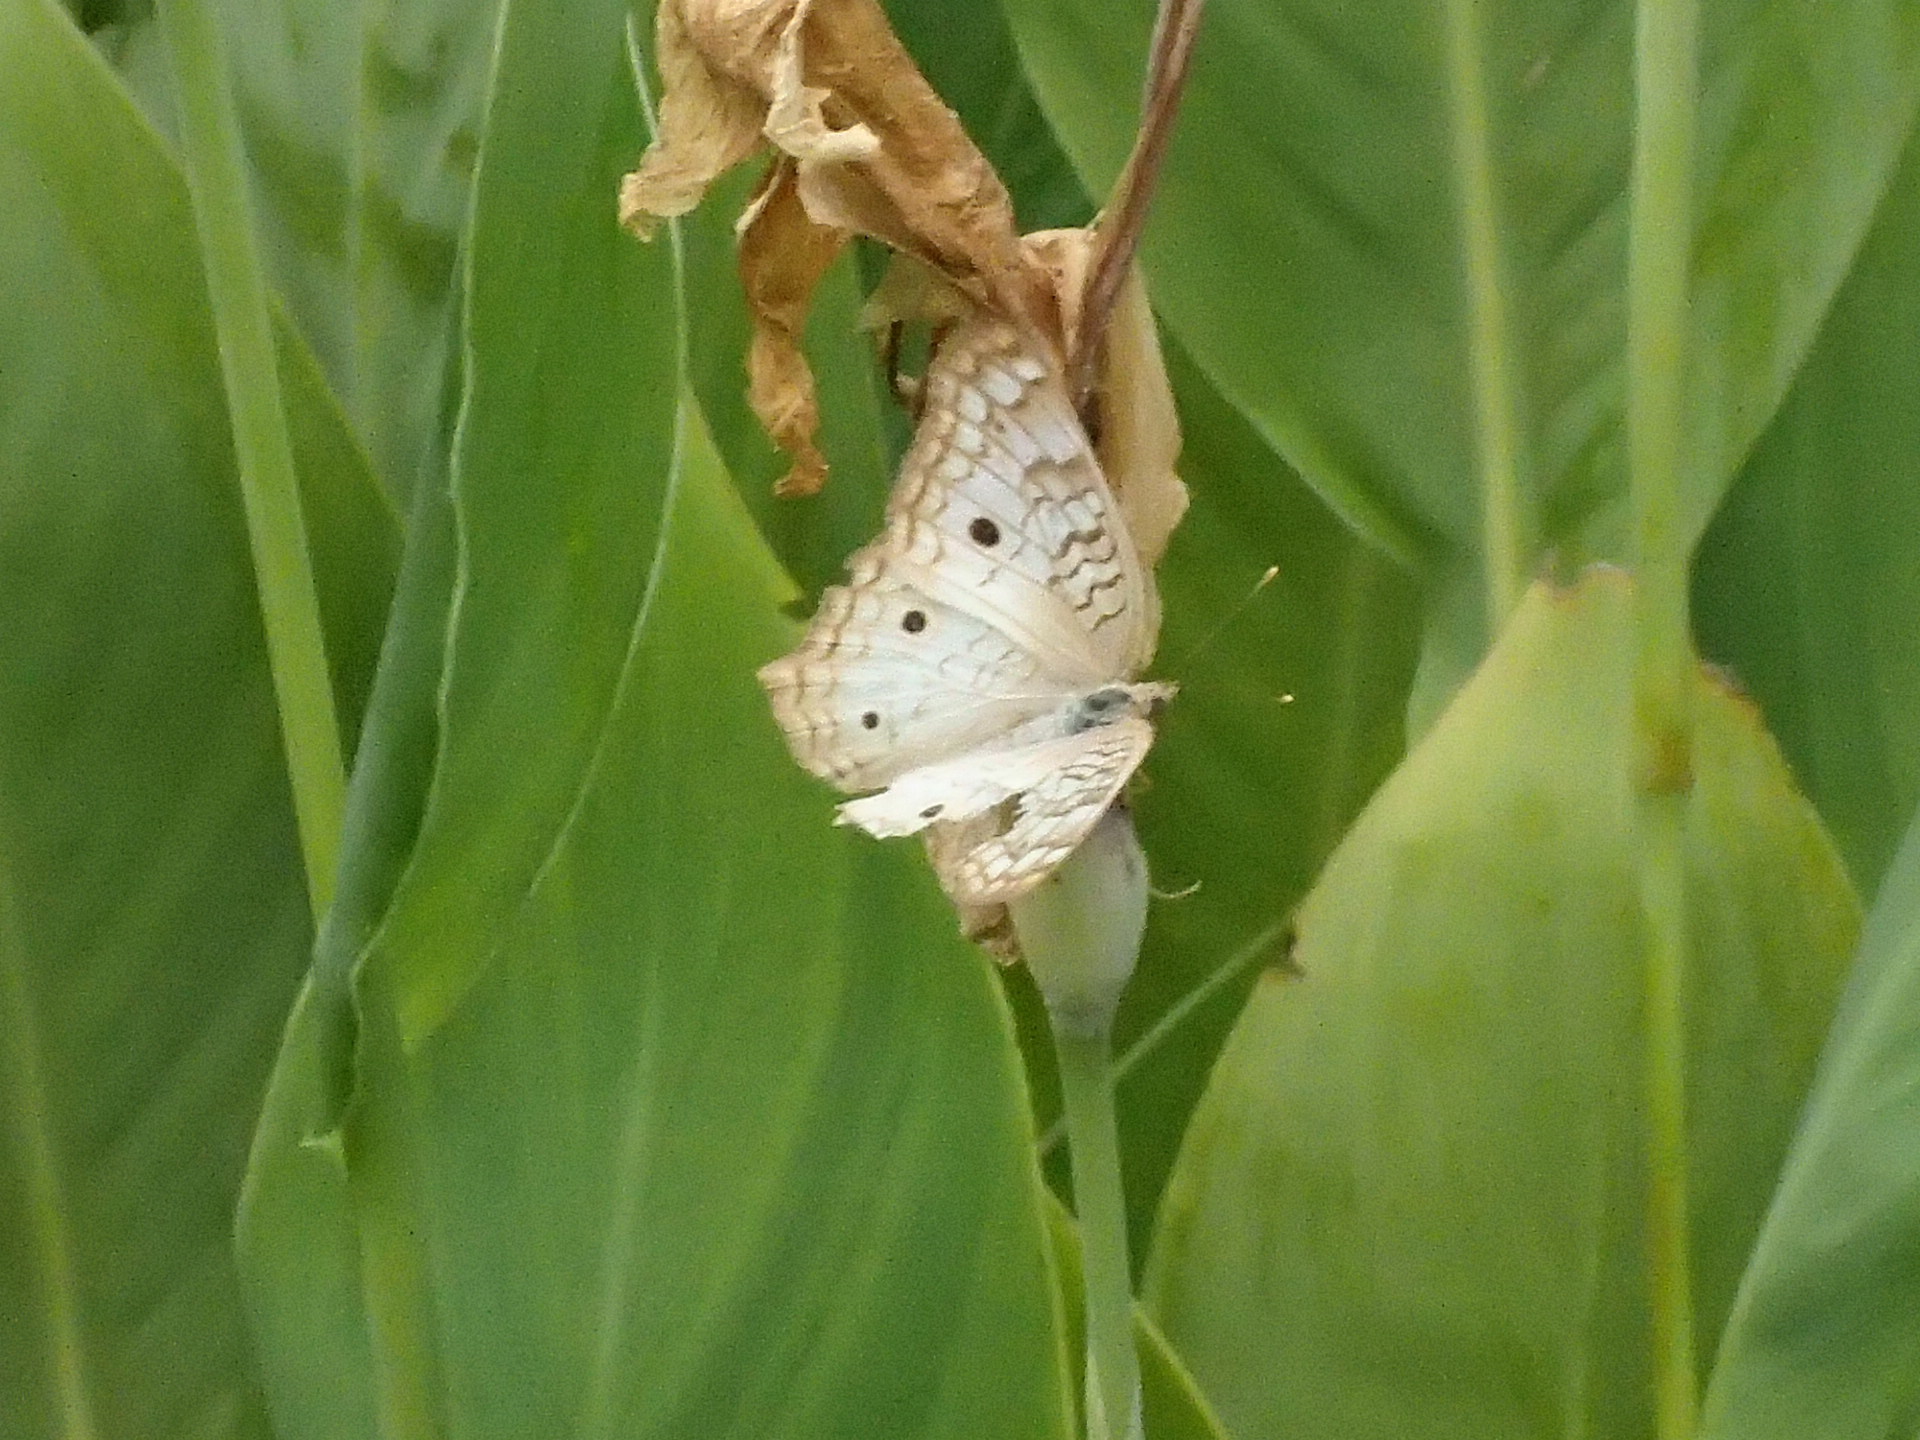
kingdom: Animalia
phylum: Arthropoda
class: Insecta
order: Lepidoptera
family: Nymphalidae
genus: Anartia
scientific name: Anartia jatrophae
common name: White peacock
